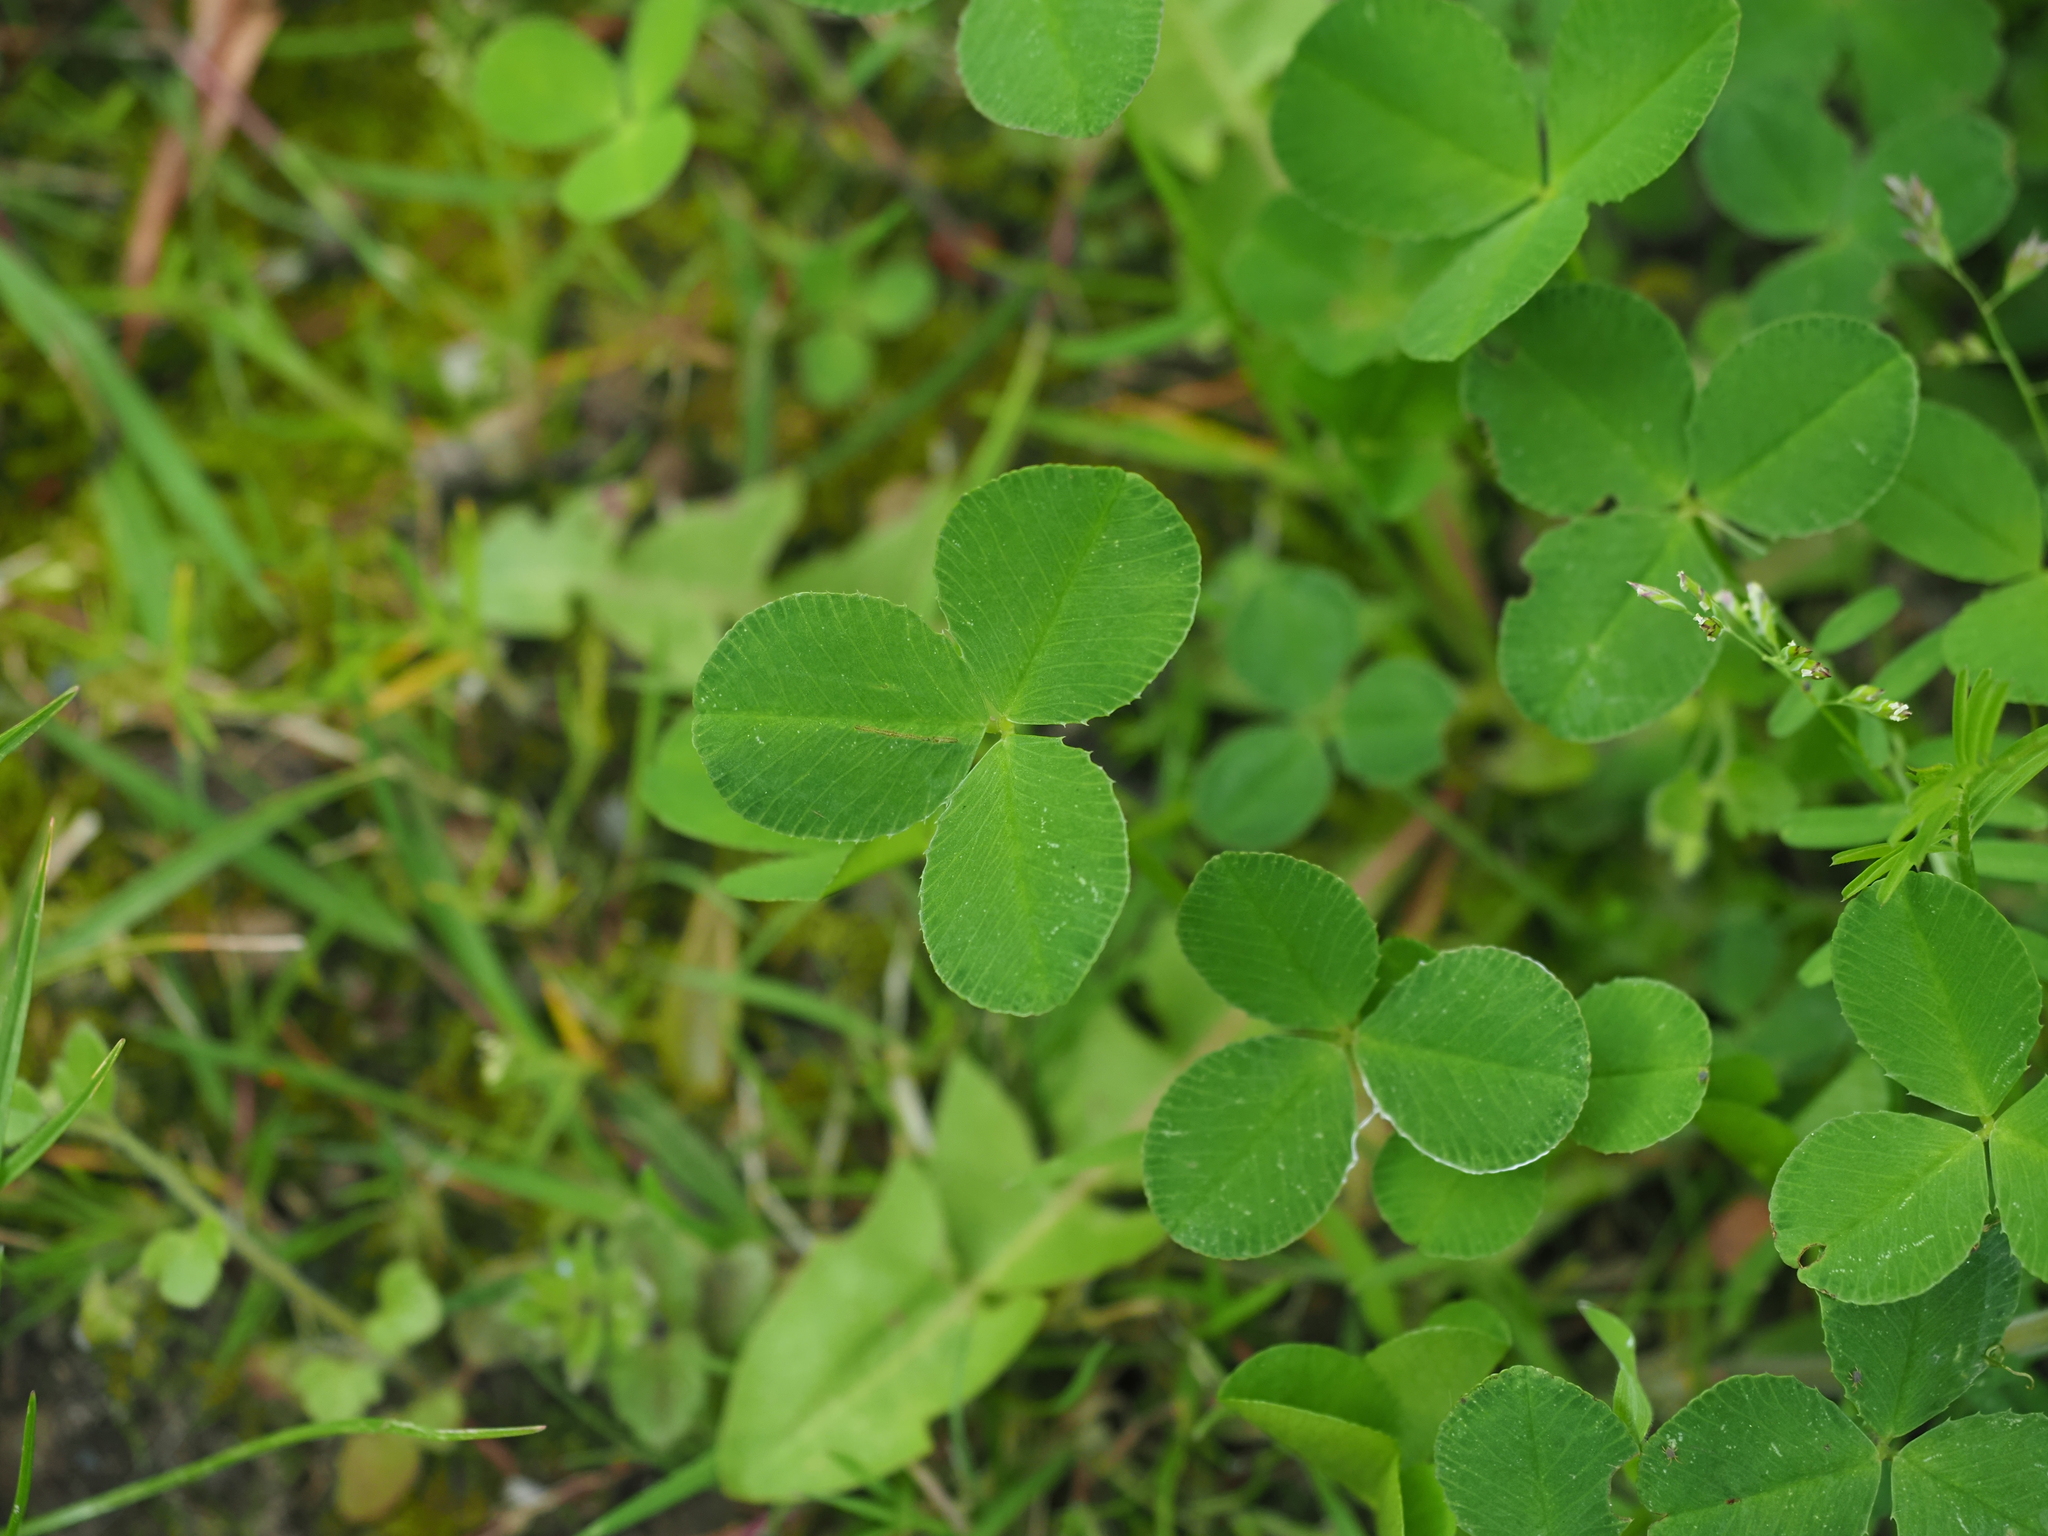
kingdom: Plantae
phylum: Tracheophyta
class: Magnoliopsida
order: Fabales
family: Fabaceae
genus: Trifolium
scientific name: Trifolium repens
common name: White clover
